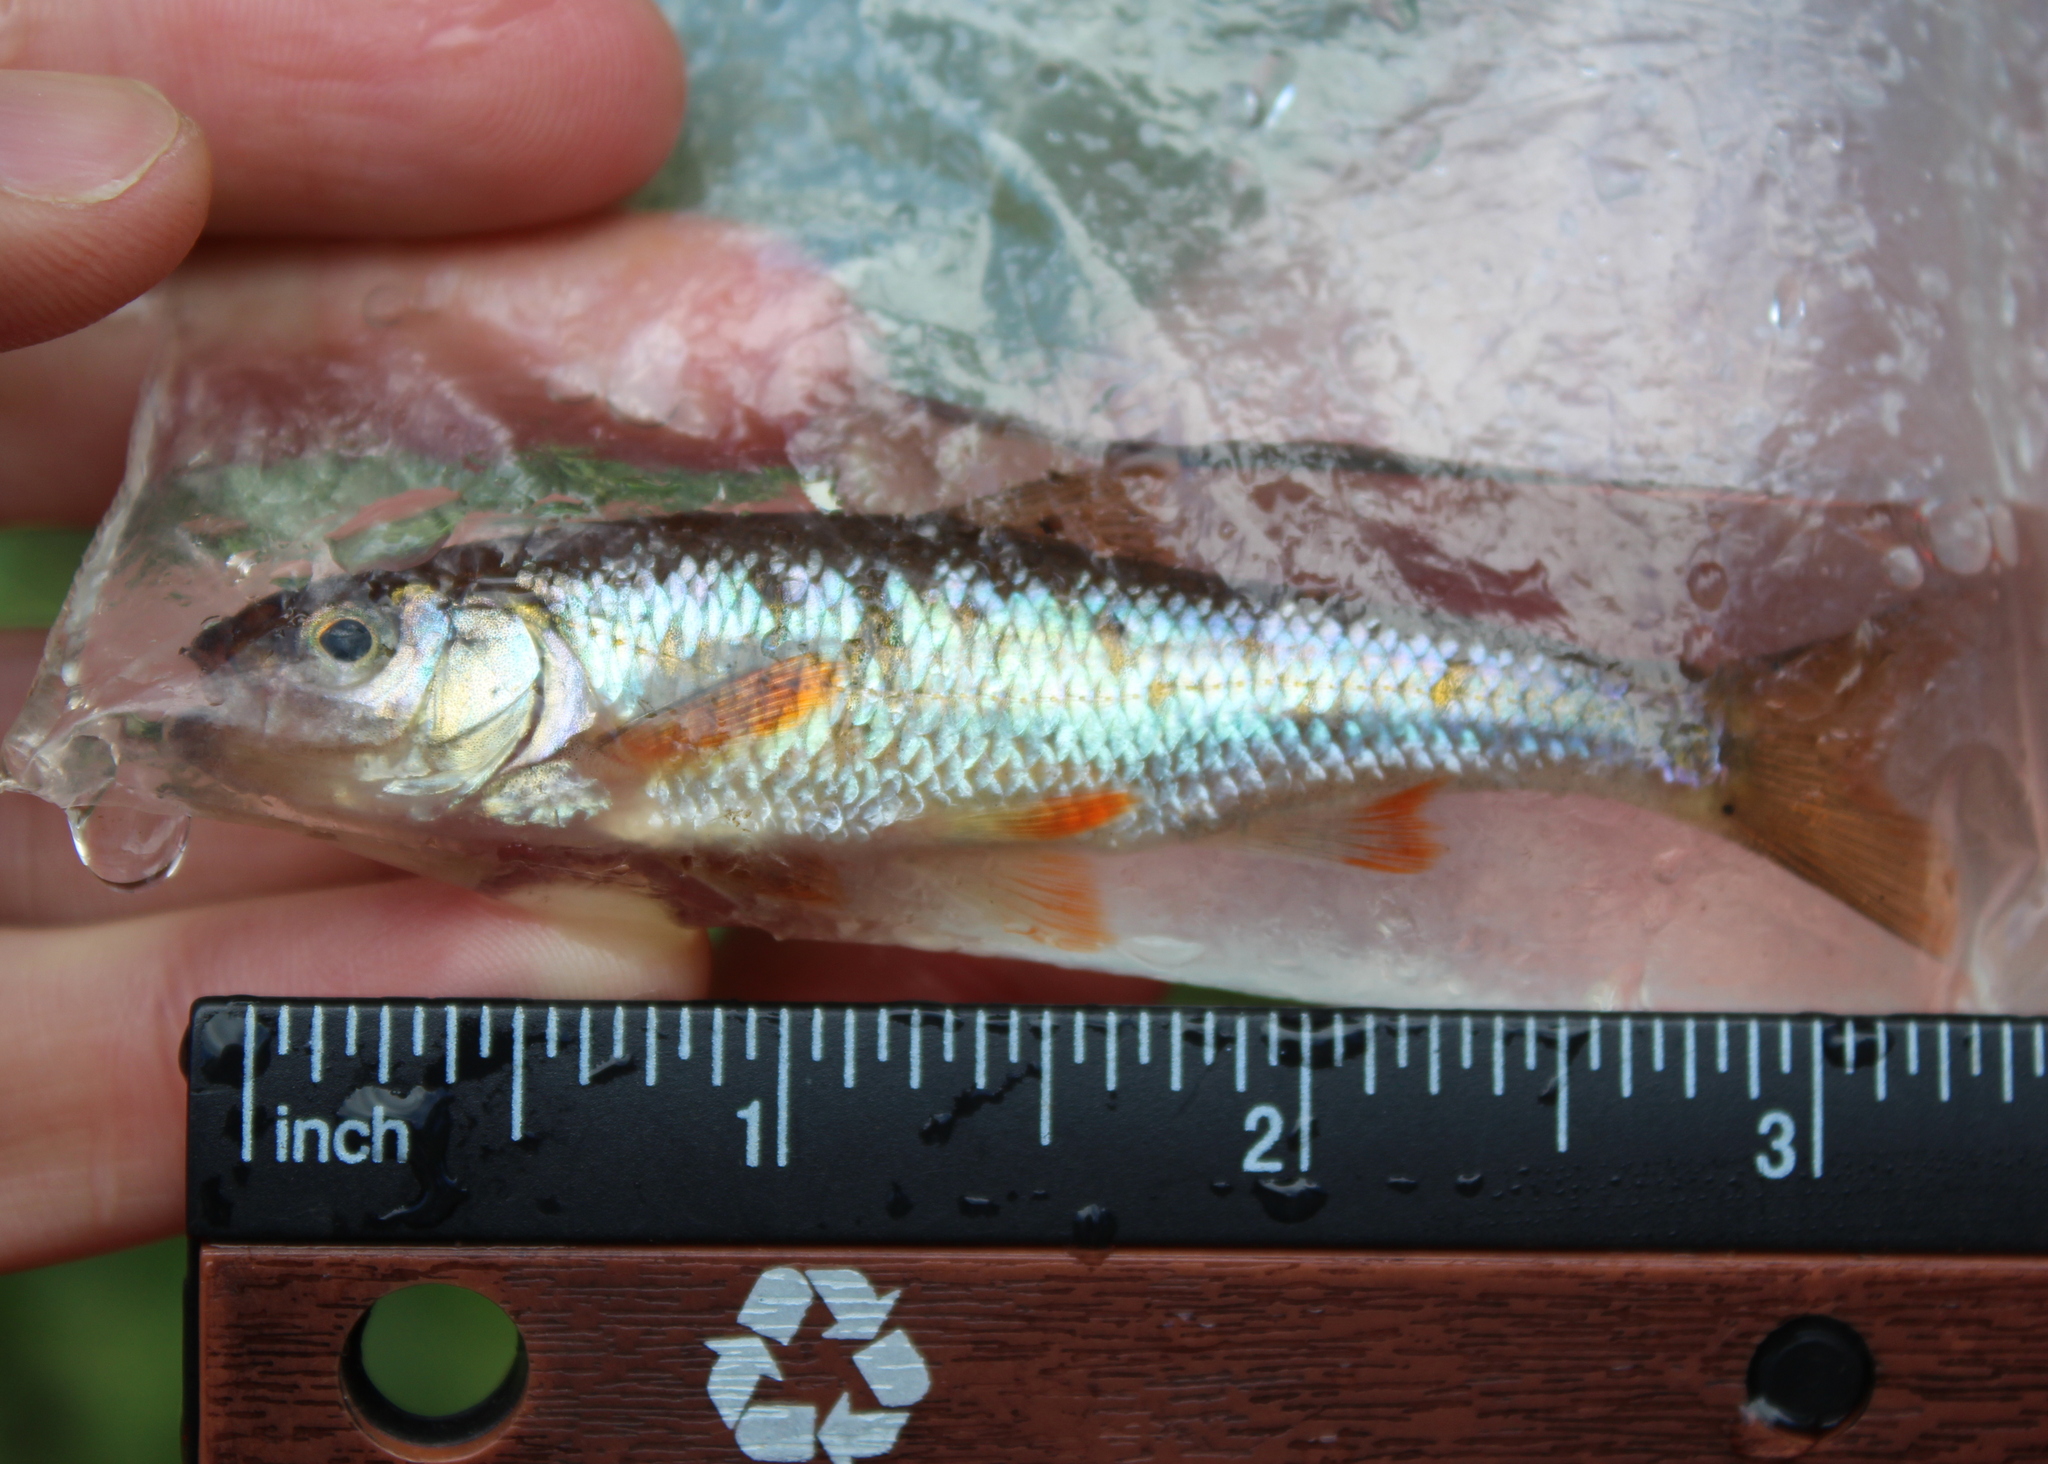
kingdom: Animalia
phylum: Chordata
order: Cypriniformes
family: Cyprinidae
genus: Luxilus
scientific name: Luxilus cornutus
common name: Common shiner
